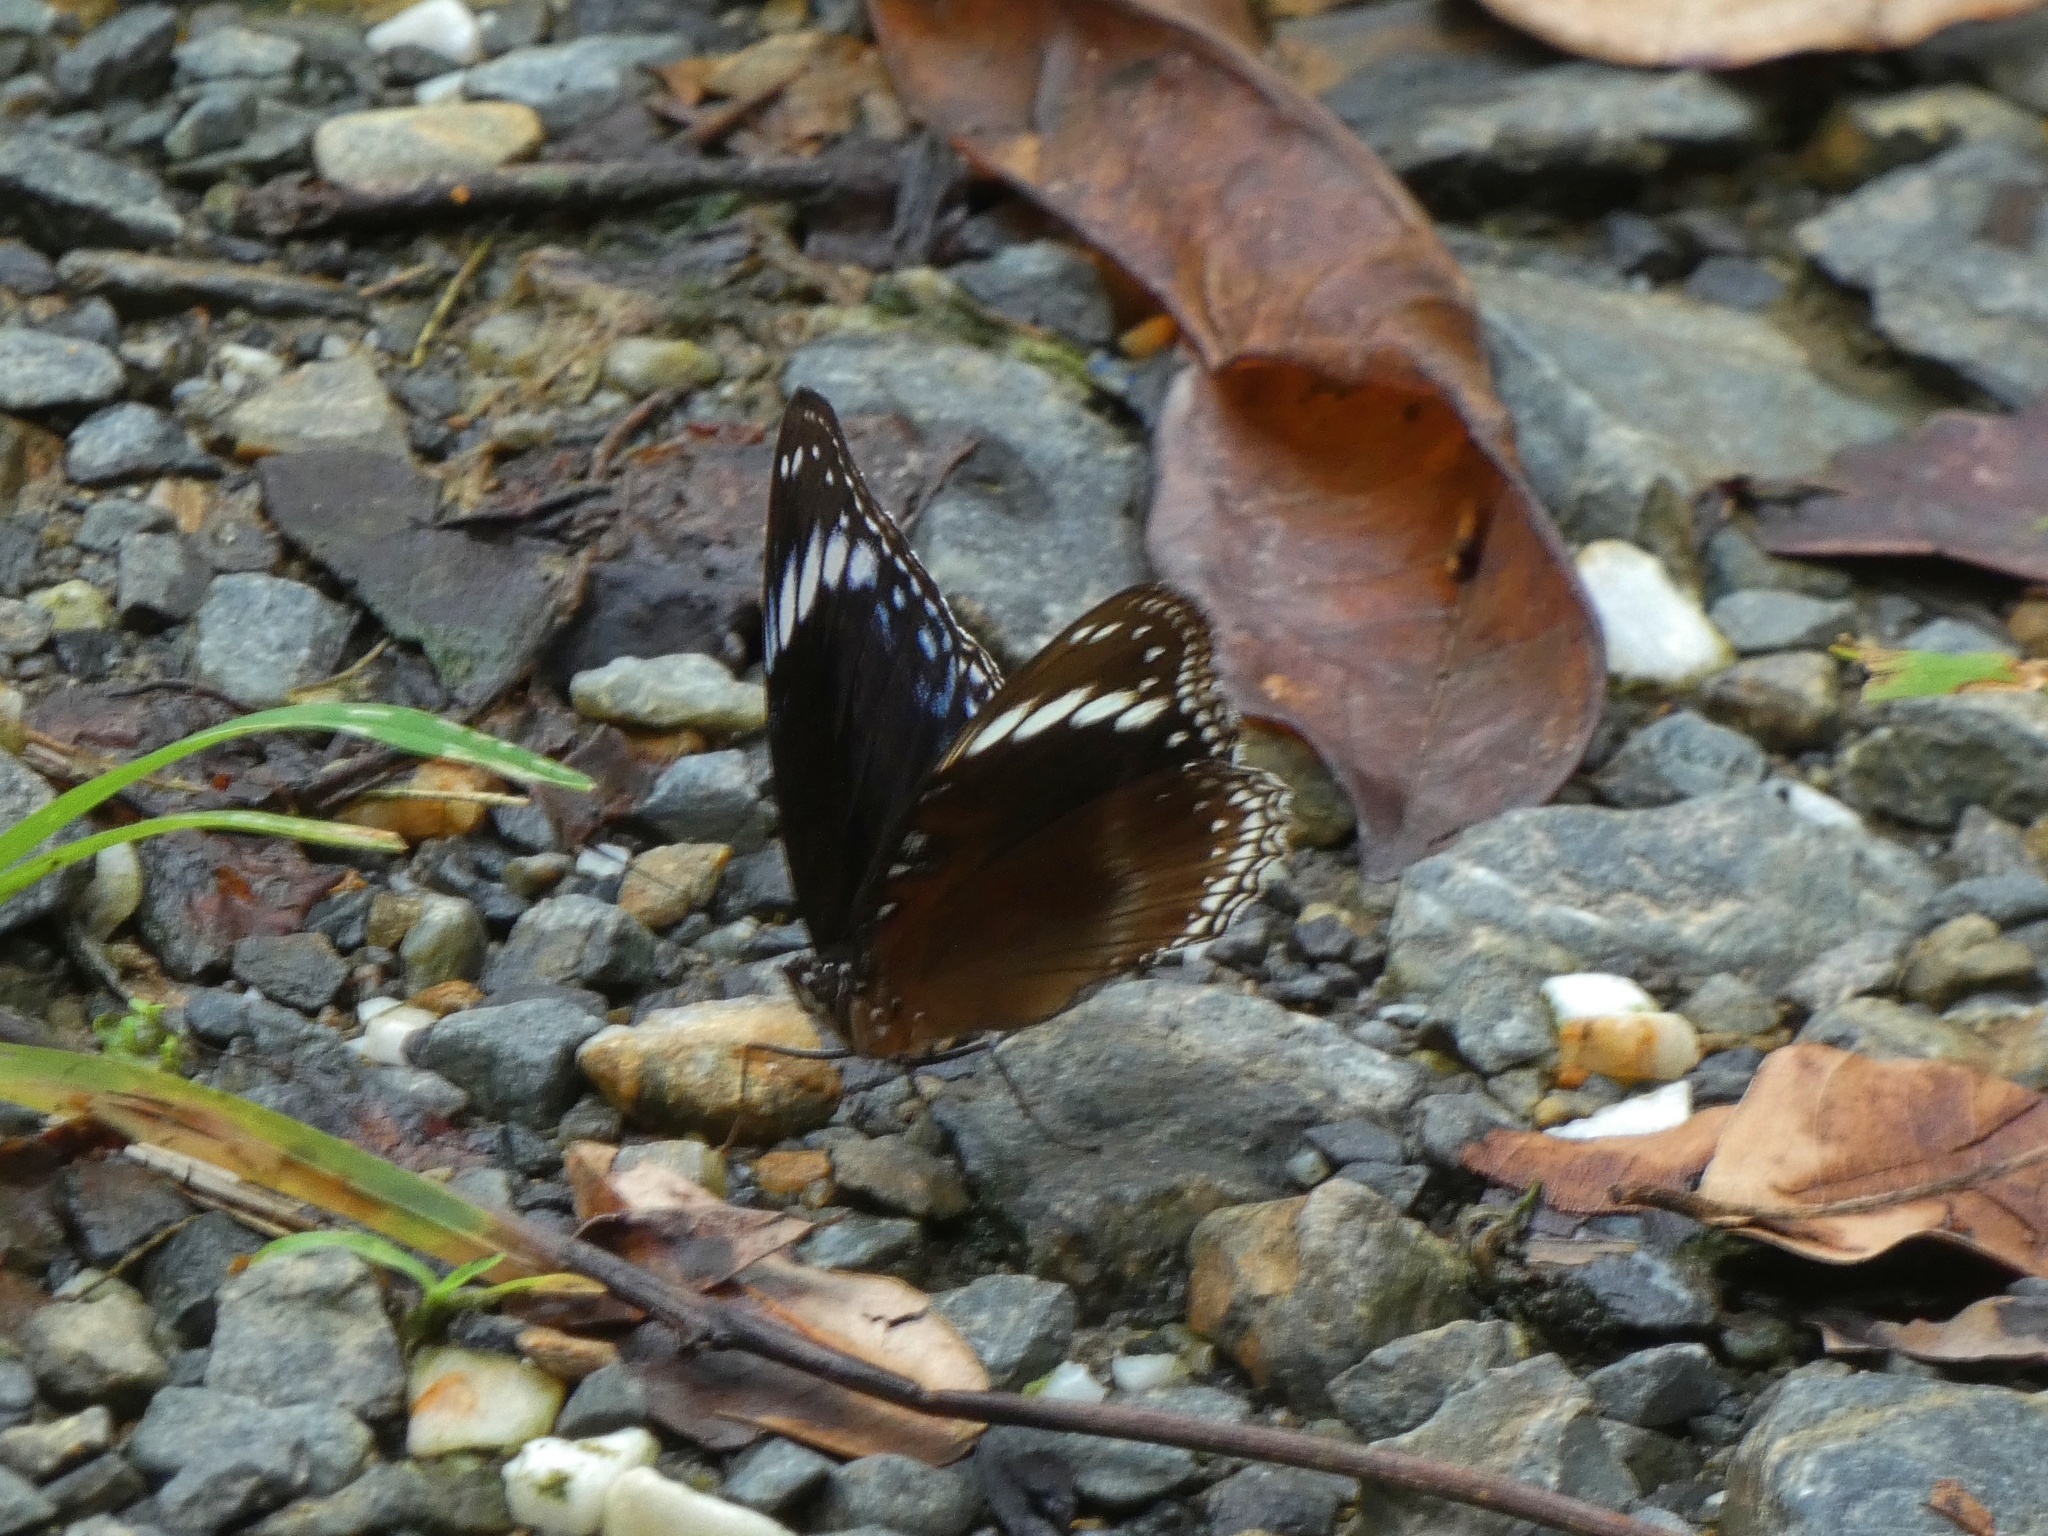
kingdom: Animalia
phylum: Arthropoda
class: Insecta
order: Lepidoptera
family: Nymphalidae
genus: Hypolimnas
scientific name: Hypolimnas alimena
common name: Blue-banded eggfly
